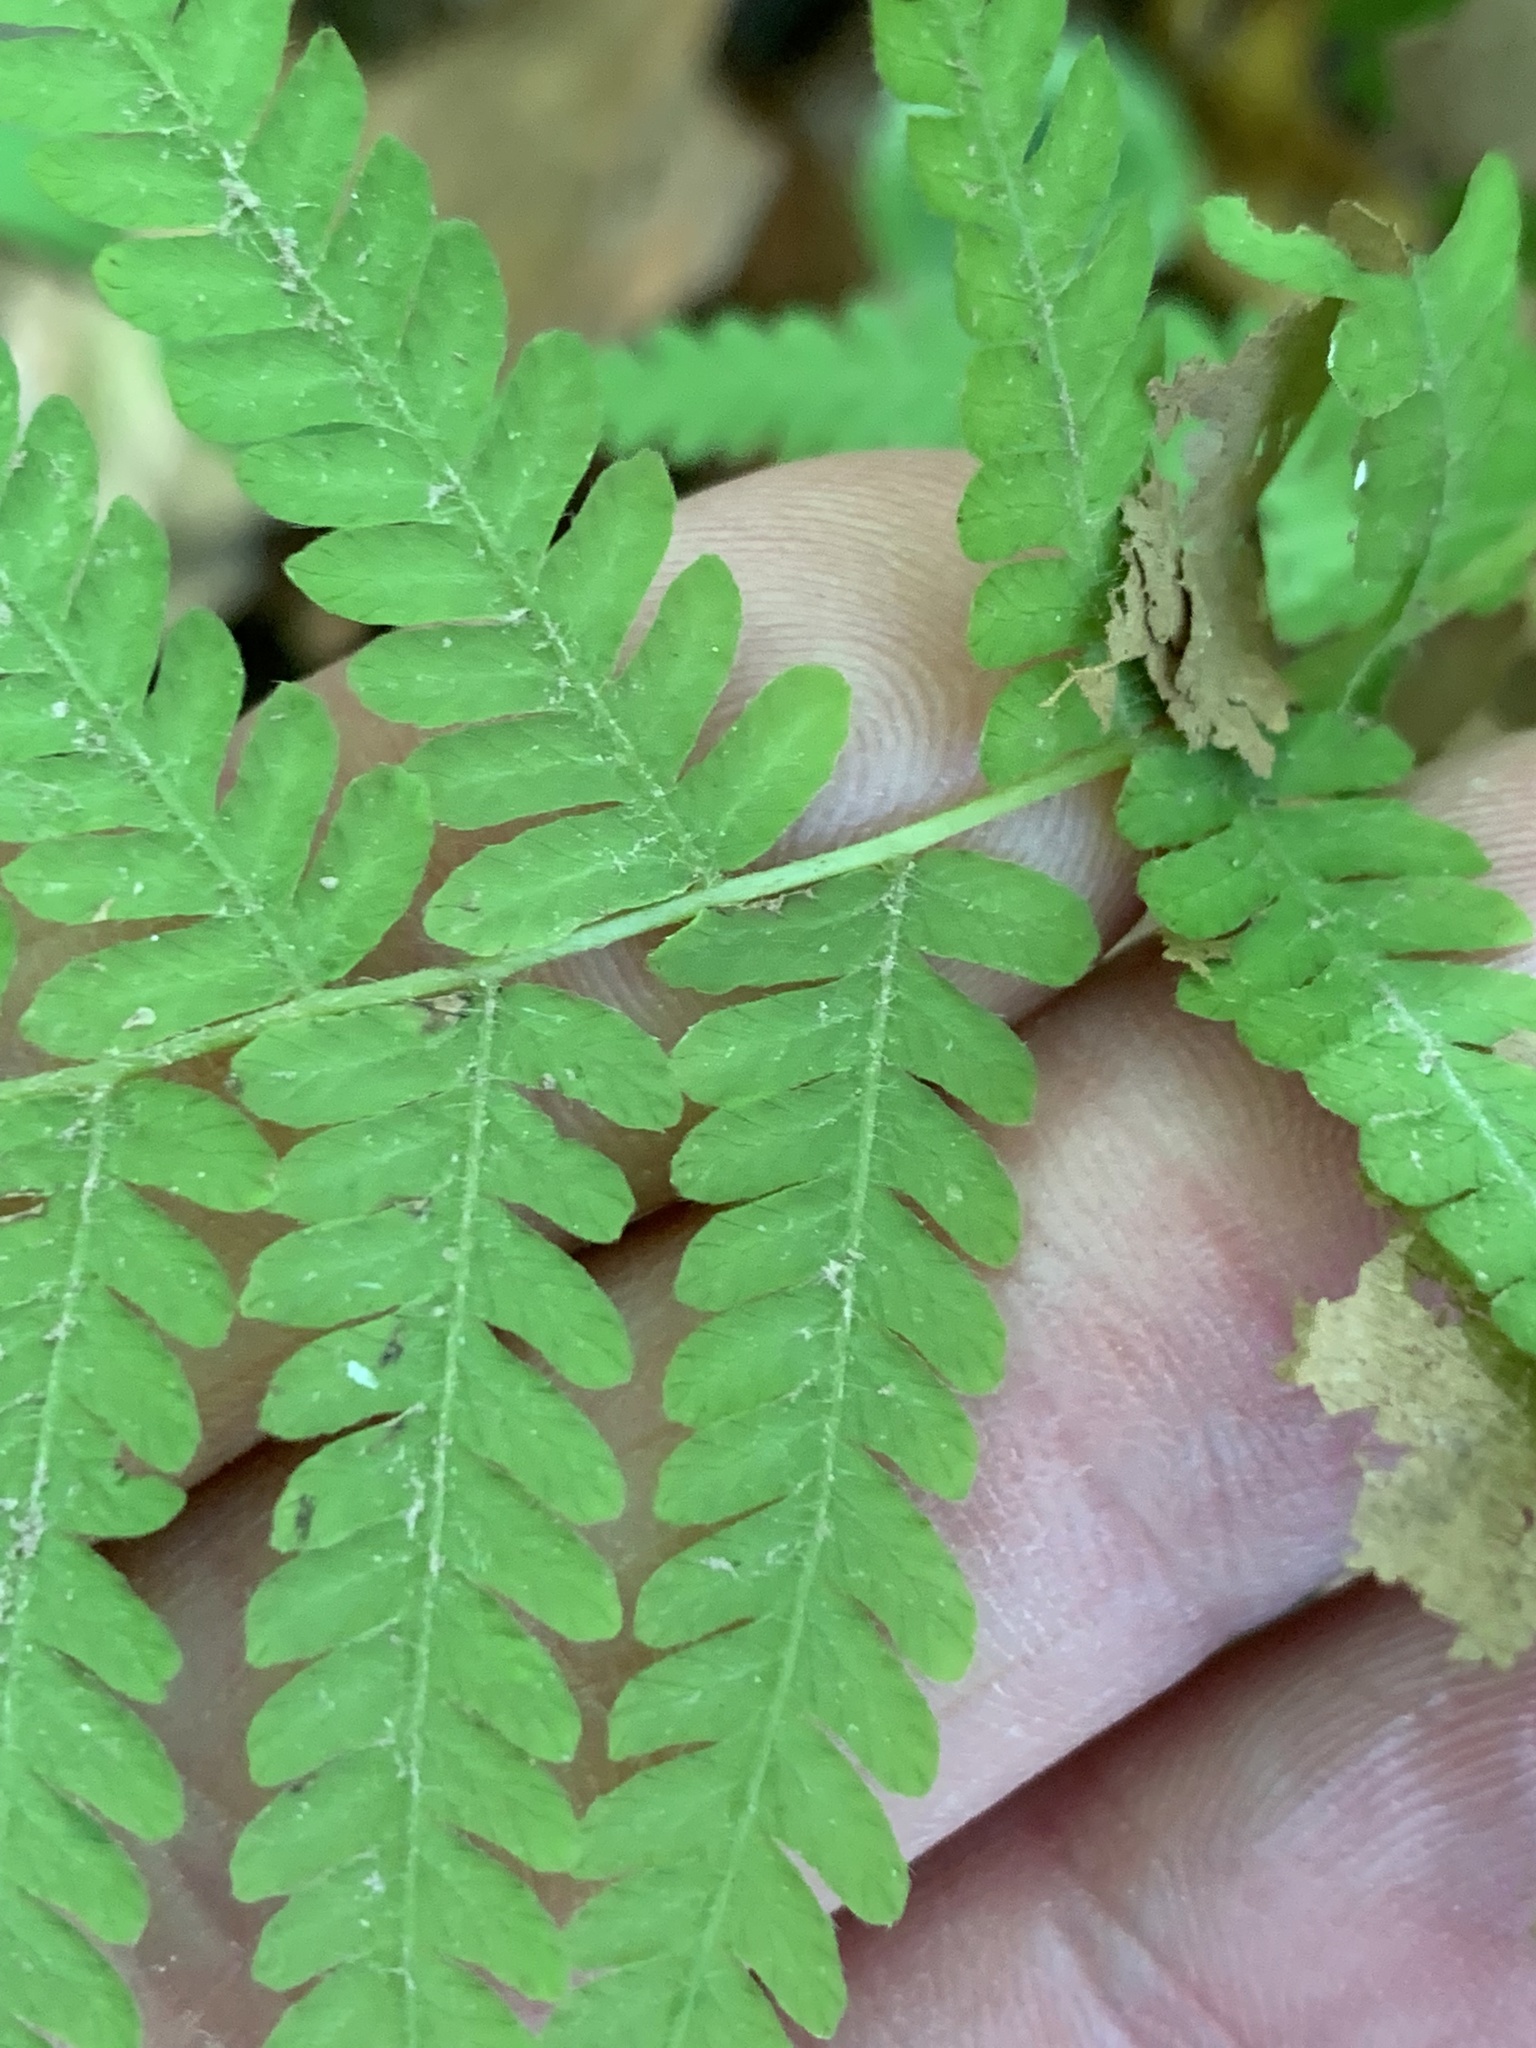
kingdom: Plantae
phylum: Tracheophyta
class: Polypodiopsida
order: Polypodiales
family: Thelypteridaceae
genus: Amauropelta
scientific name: Amauropelta noveboracensis
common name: New york fern
